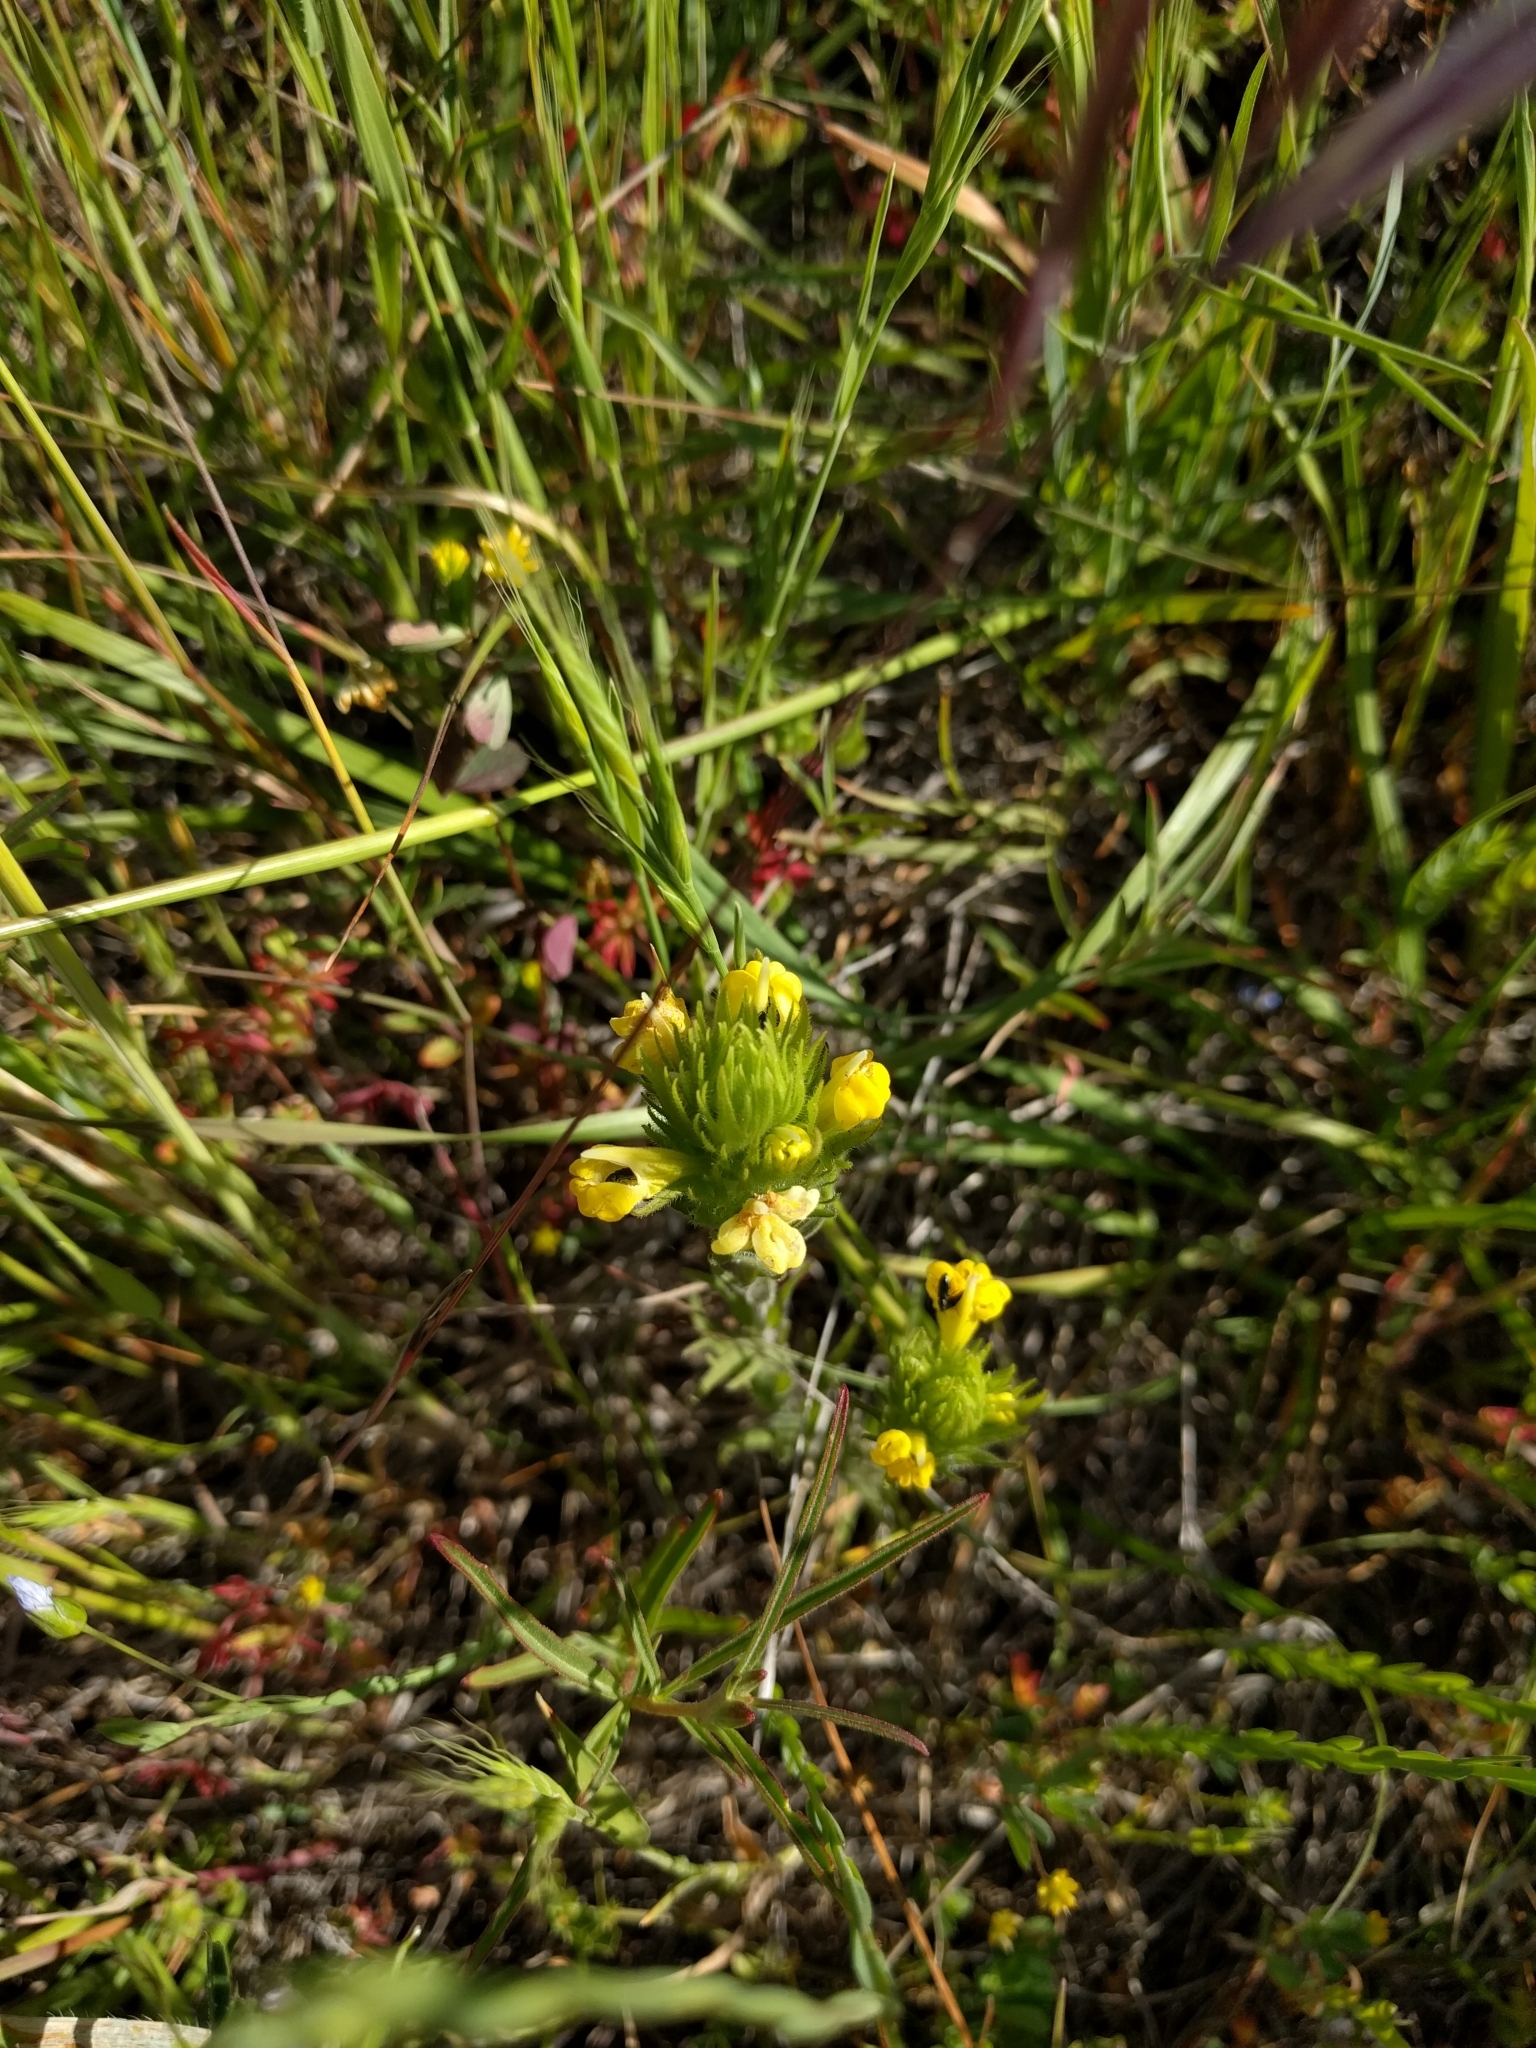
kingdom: Plantae
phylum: Tracheophyta
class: Magnoliopsida
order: Lamiales
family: Orobanchaceae
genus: Castilleja
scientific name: Castilleja rubicundula
